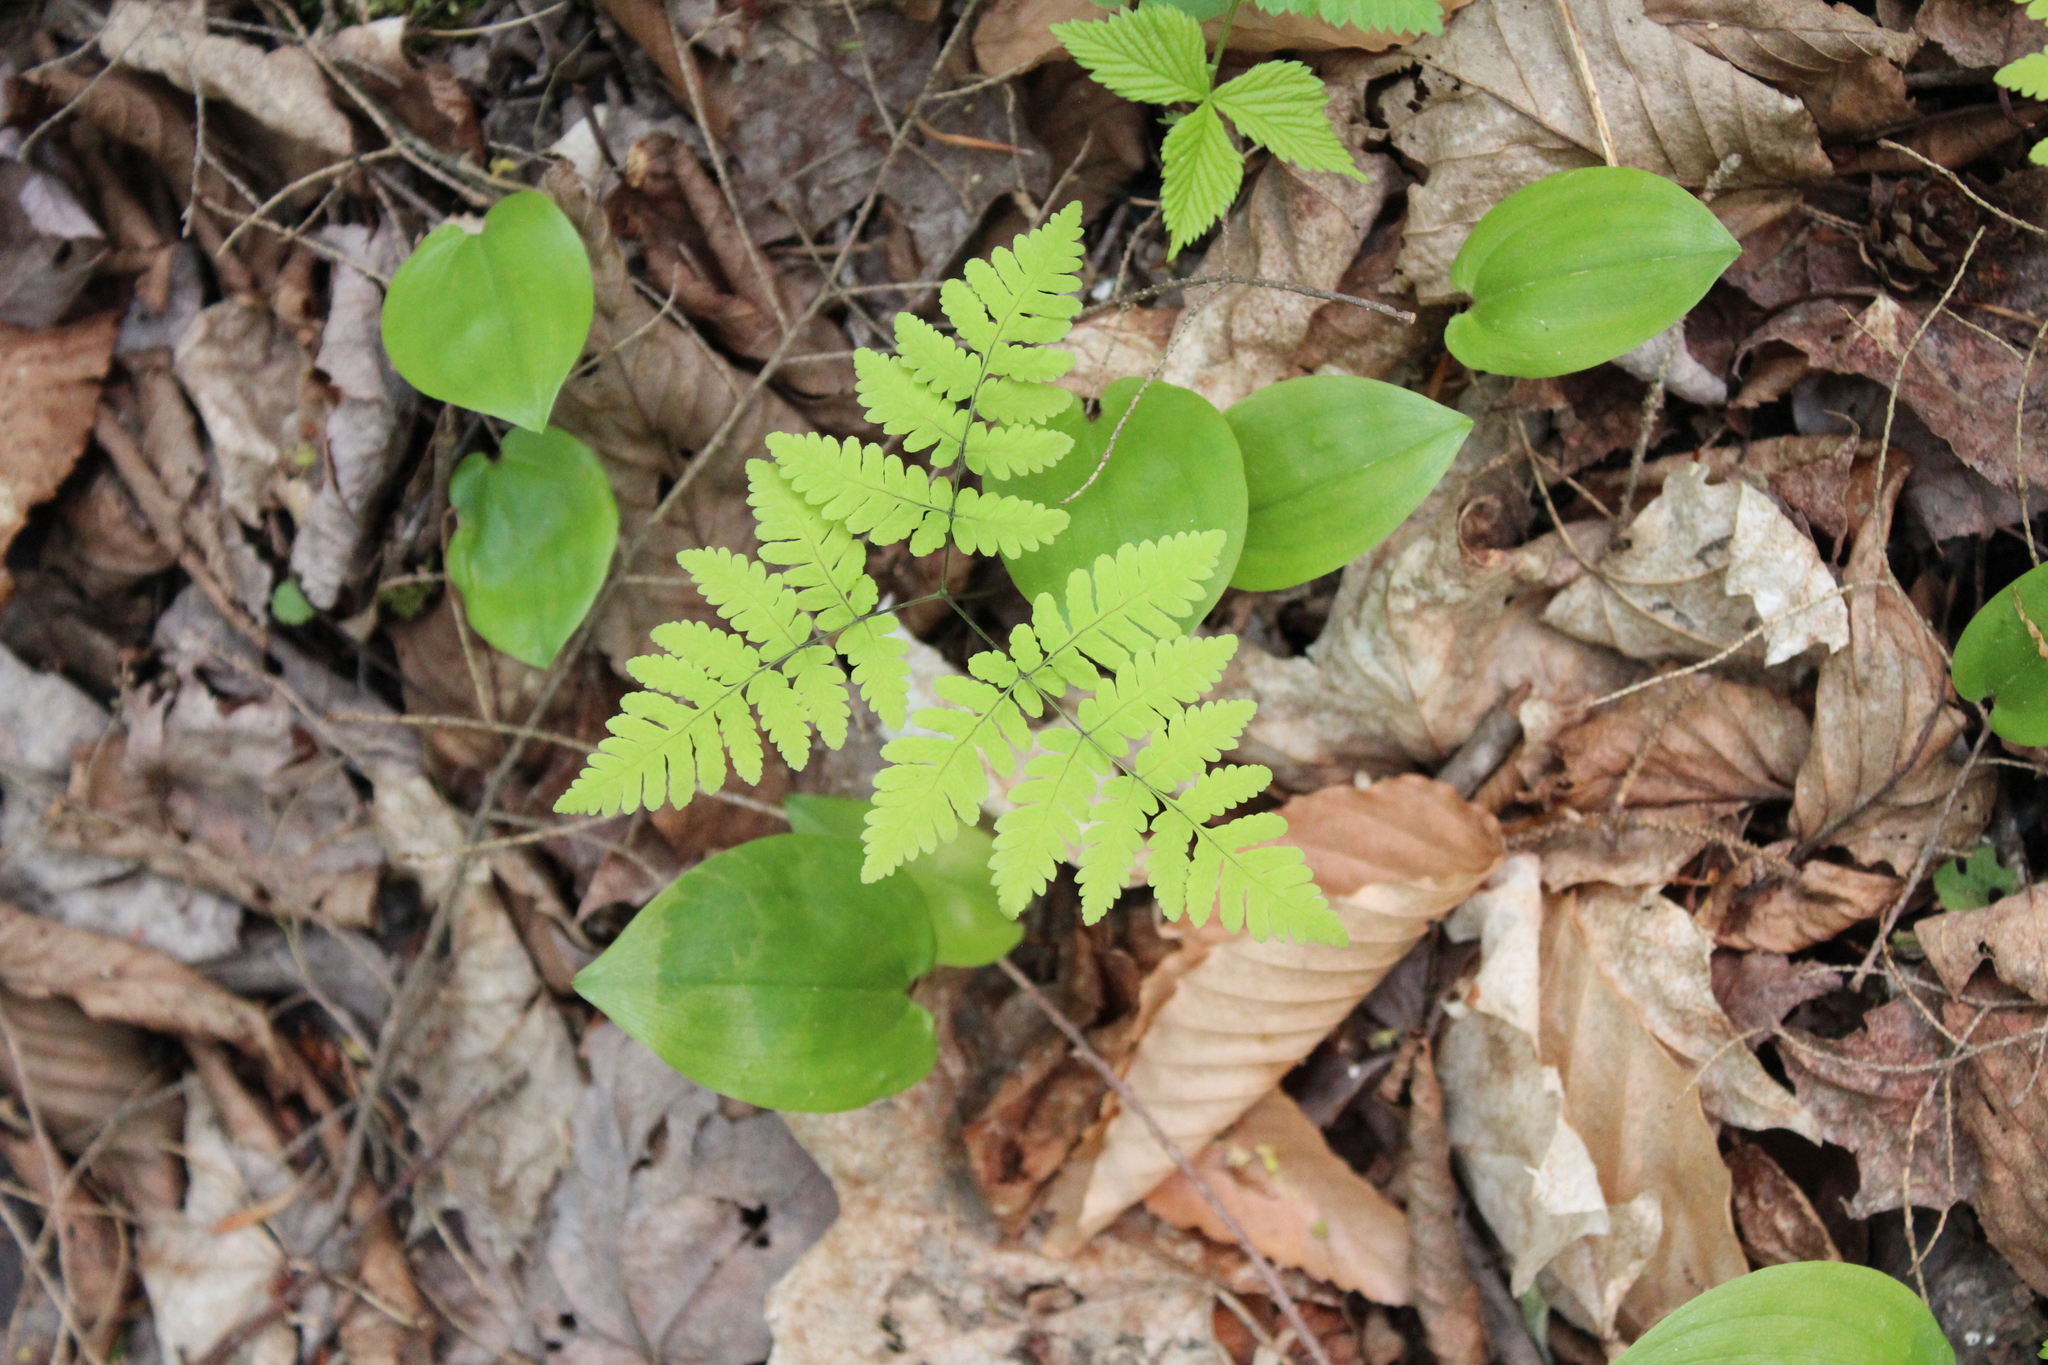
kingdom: Plantae
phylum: Tracheophyta
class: Polypodiopsida
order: Polypodiales
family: Cystopteridaceae
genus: Gymnocarpium
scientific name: Gymnocarpium dryopteris
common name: Oak fern
